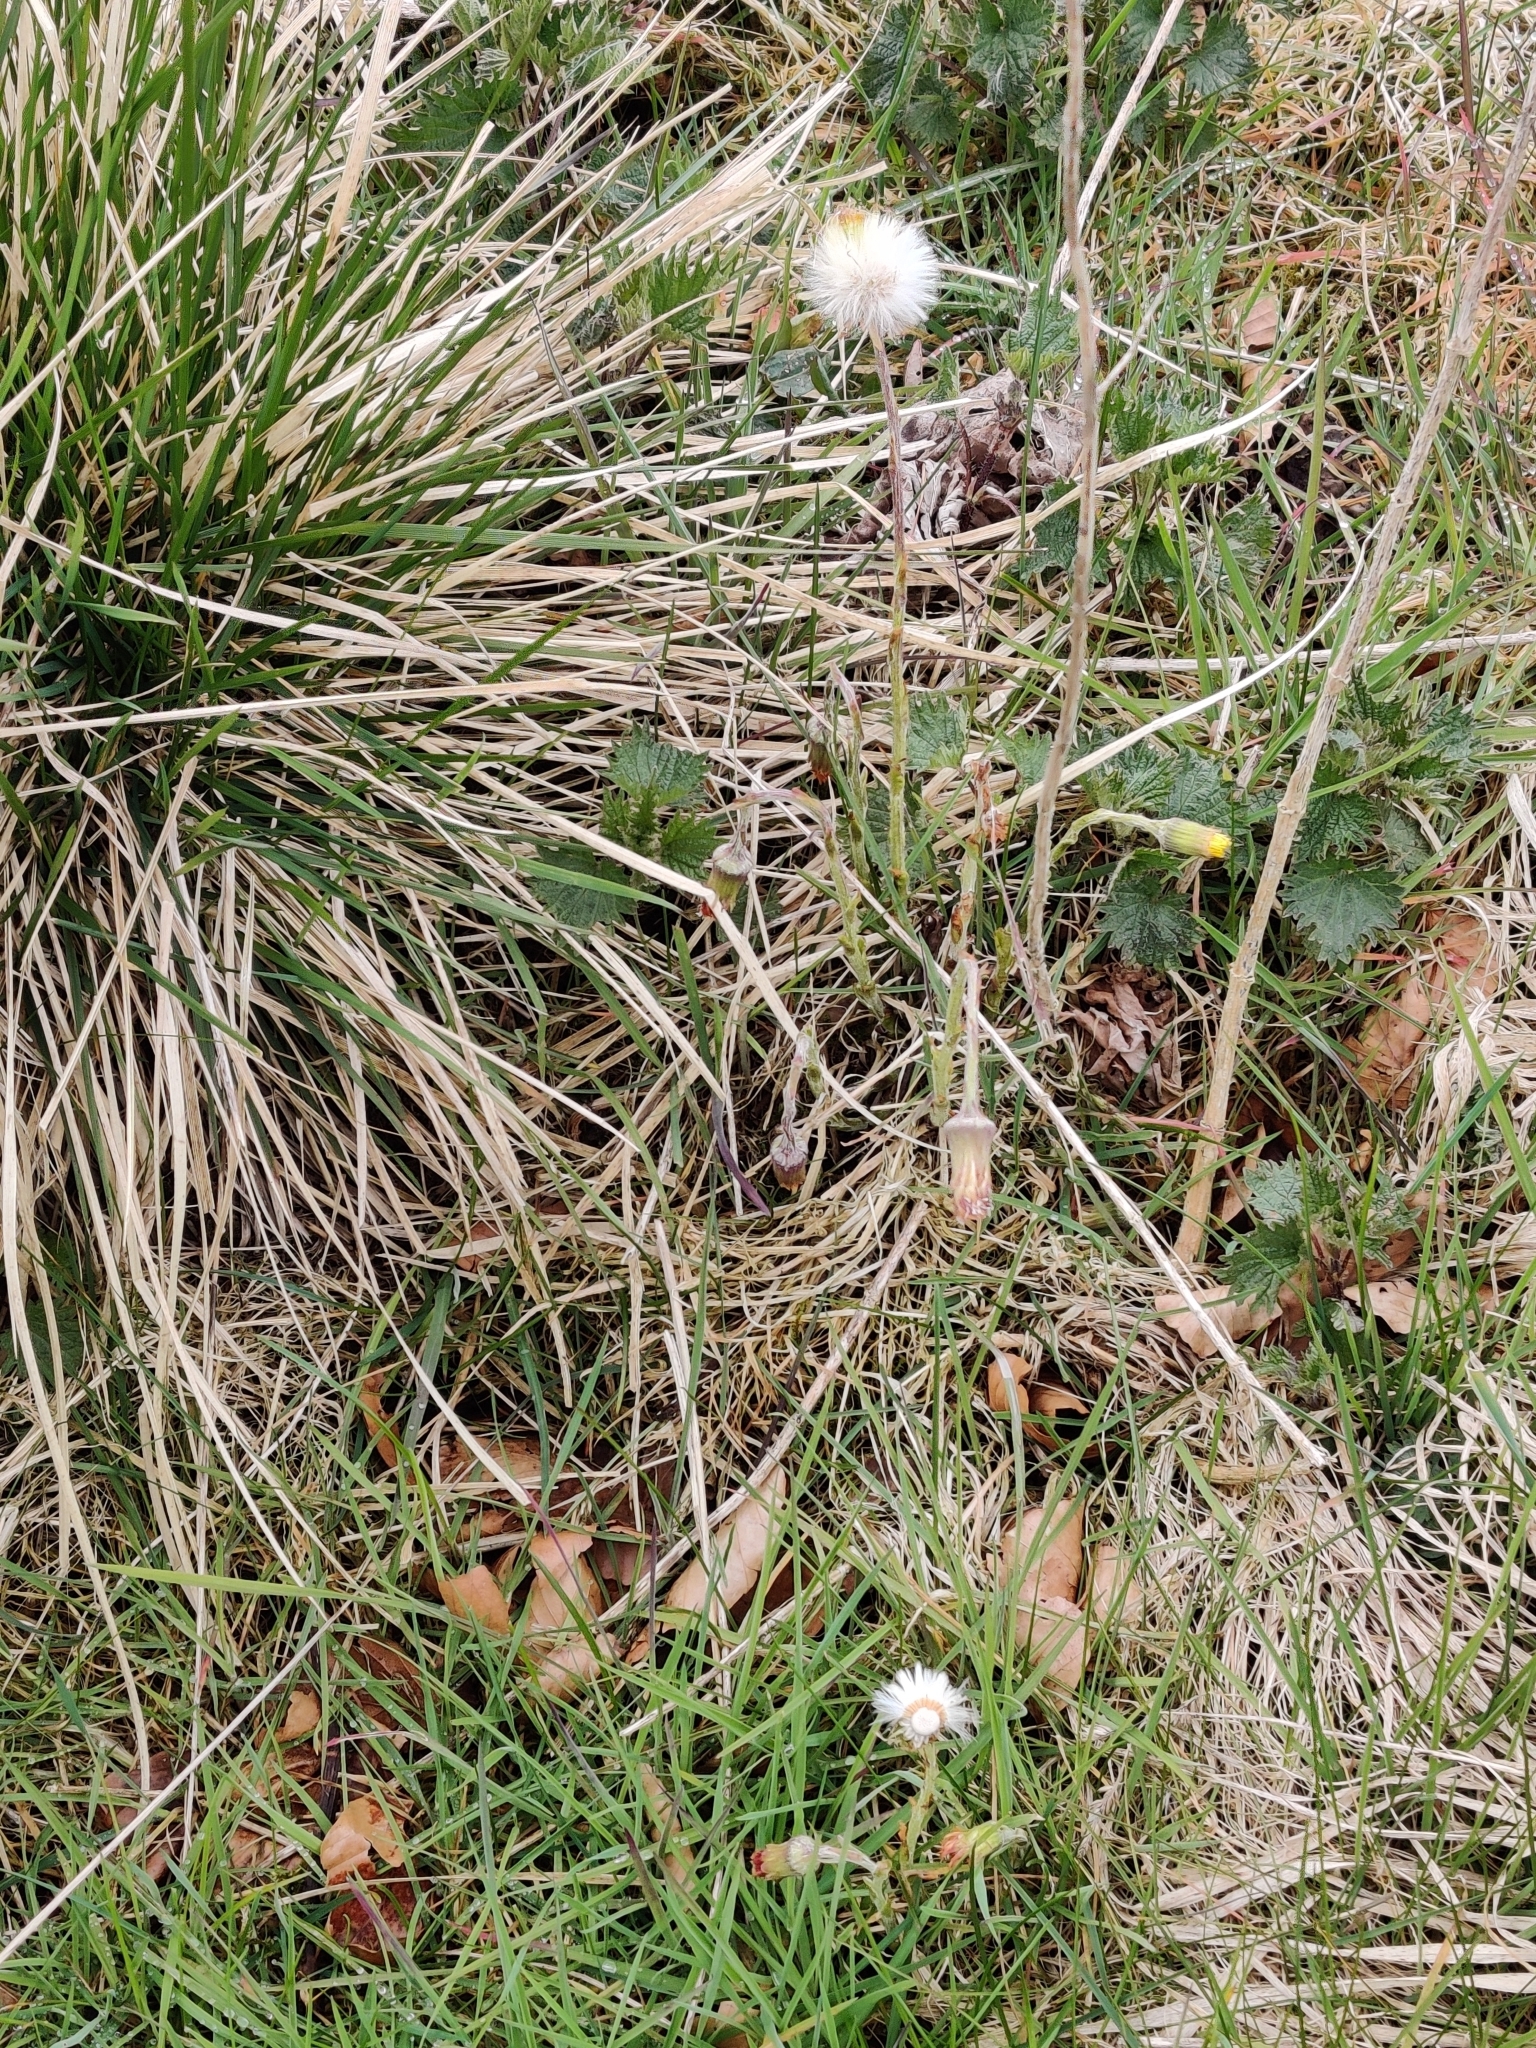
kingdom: Plantae
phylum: Tracheophyta
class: Magnoliopsida
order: Asterales
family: Asteraceae
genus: Tussilago
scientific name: Tussilago farfara
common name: Coltsfoot
